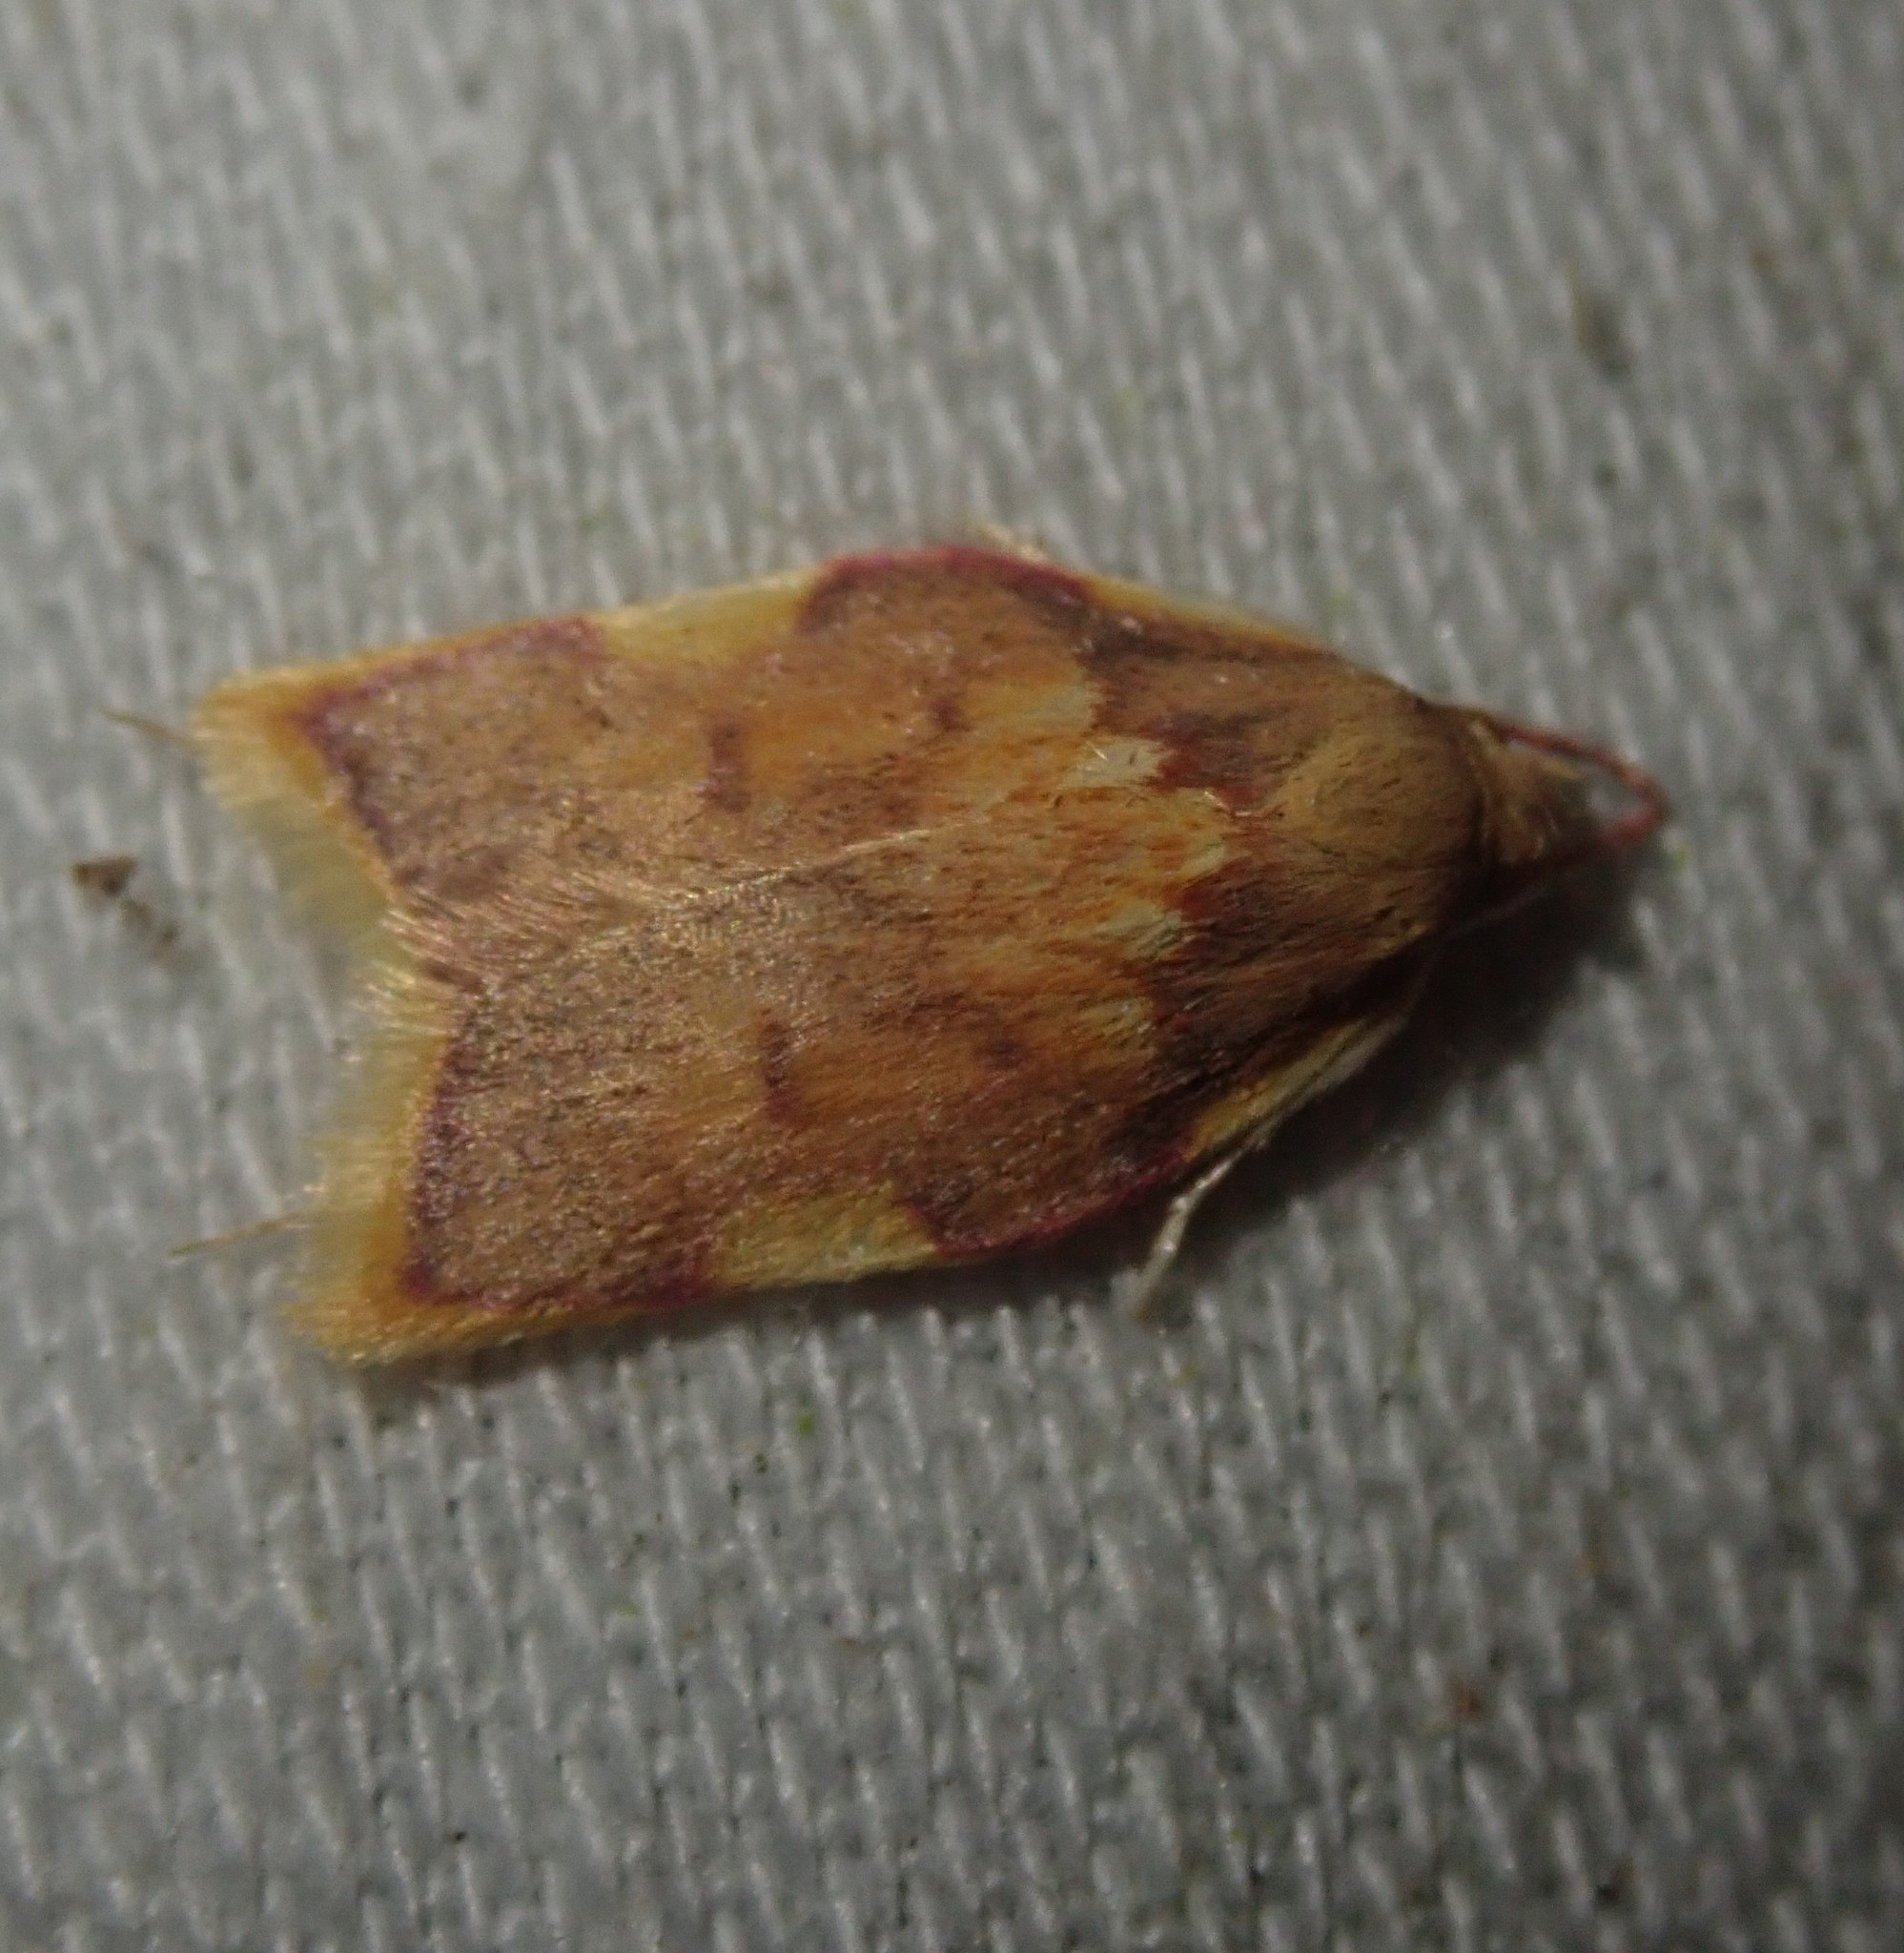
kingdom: Animalia
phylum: Arthropoda
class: Insecta
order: Lepidoptera
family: Peleopodidae
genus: Carcina
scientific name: Carcina quercana
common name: Moth
